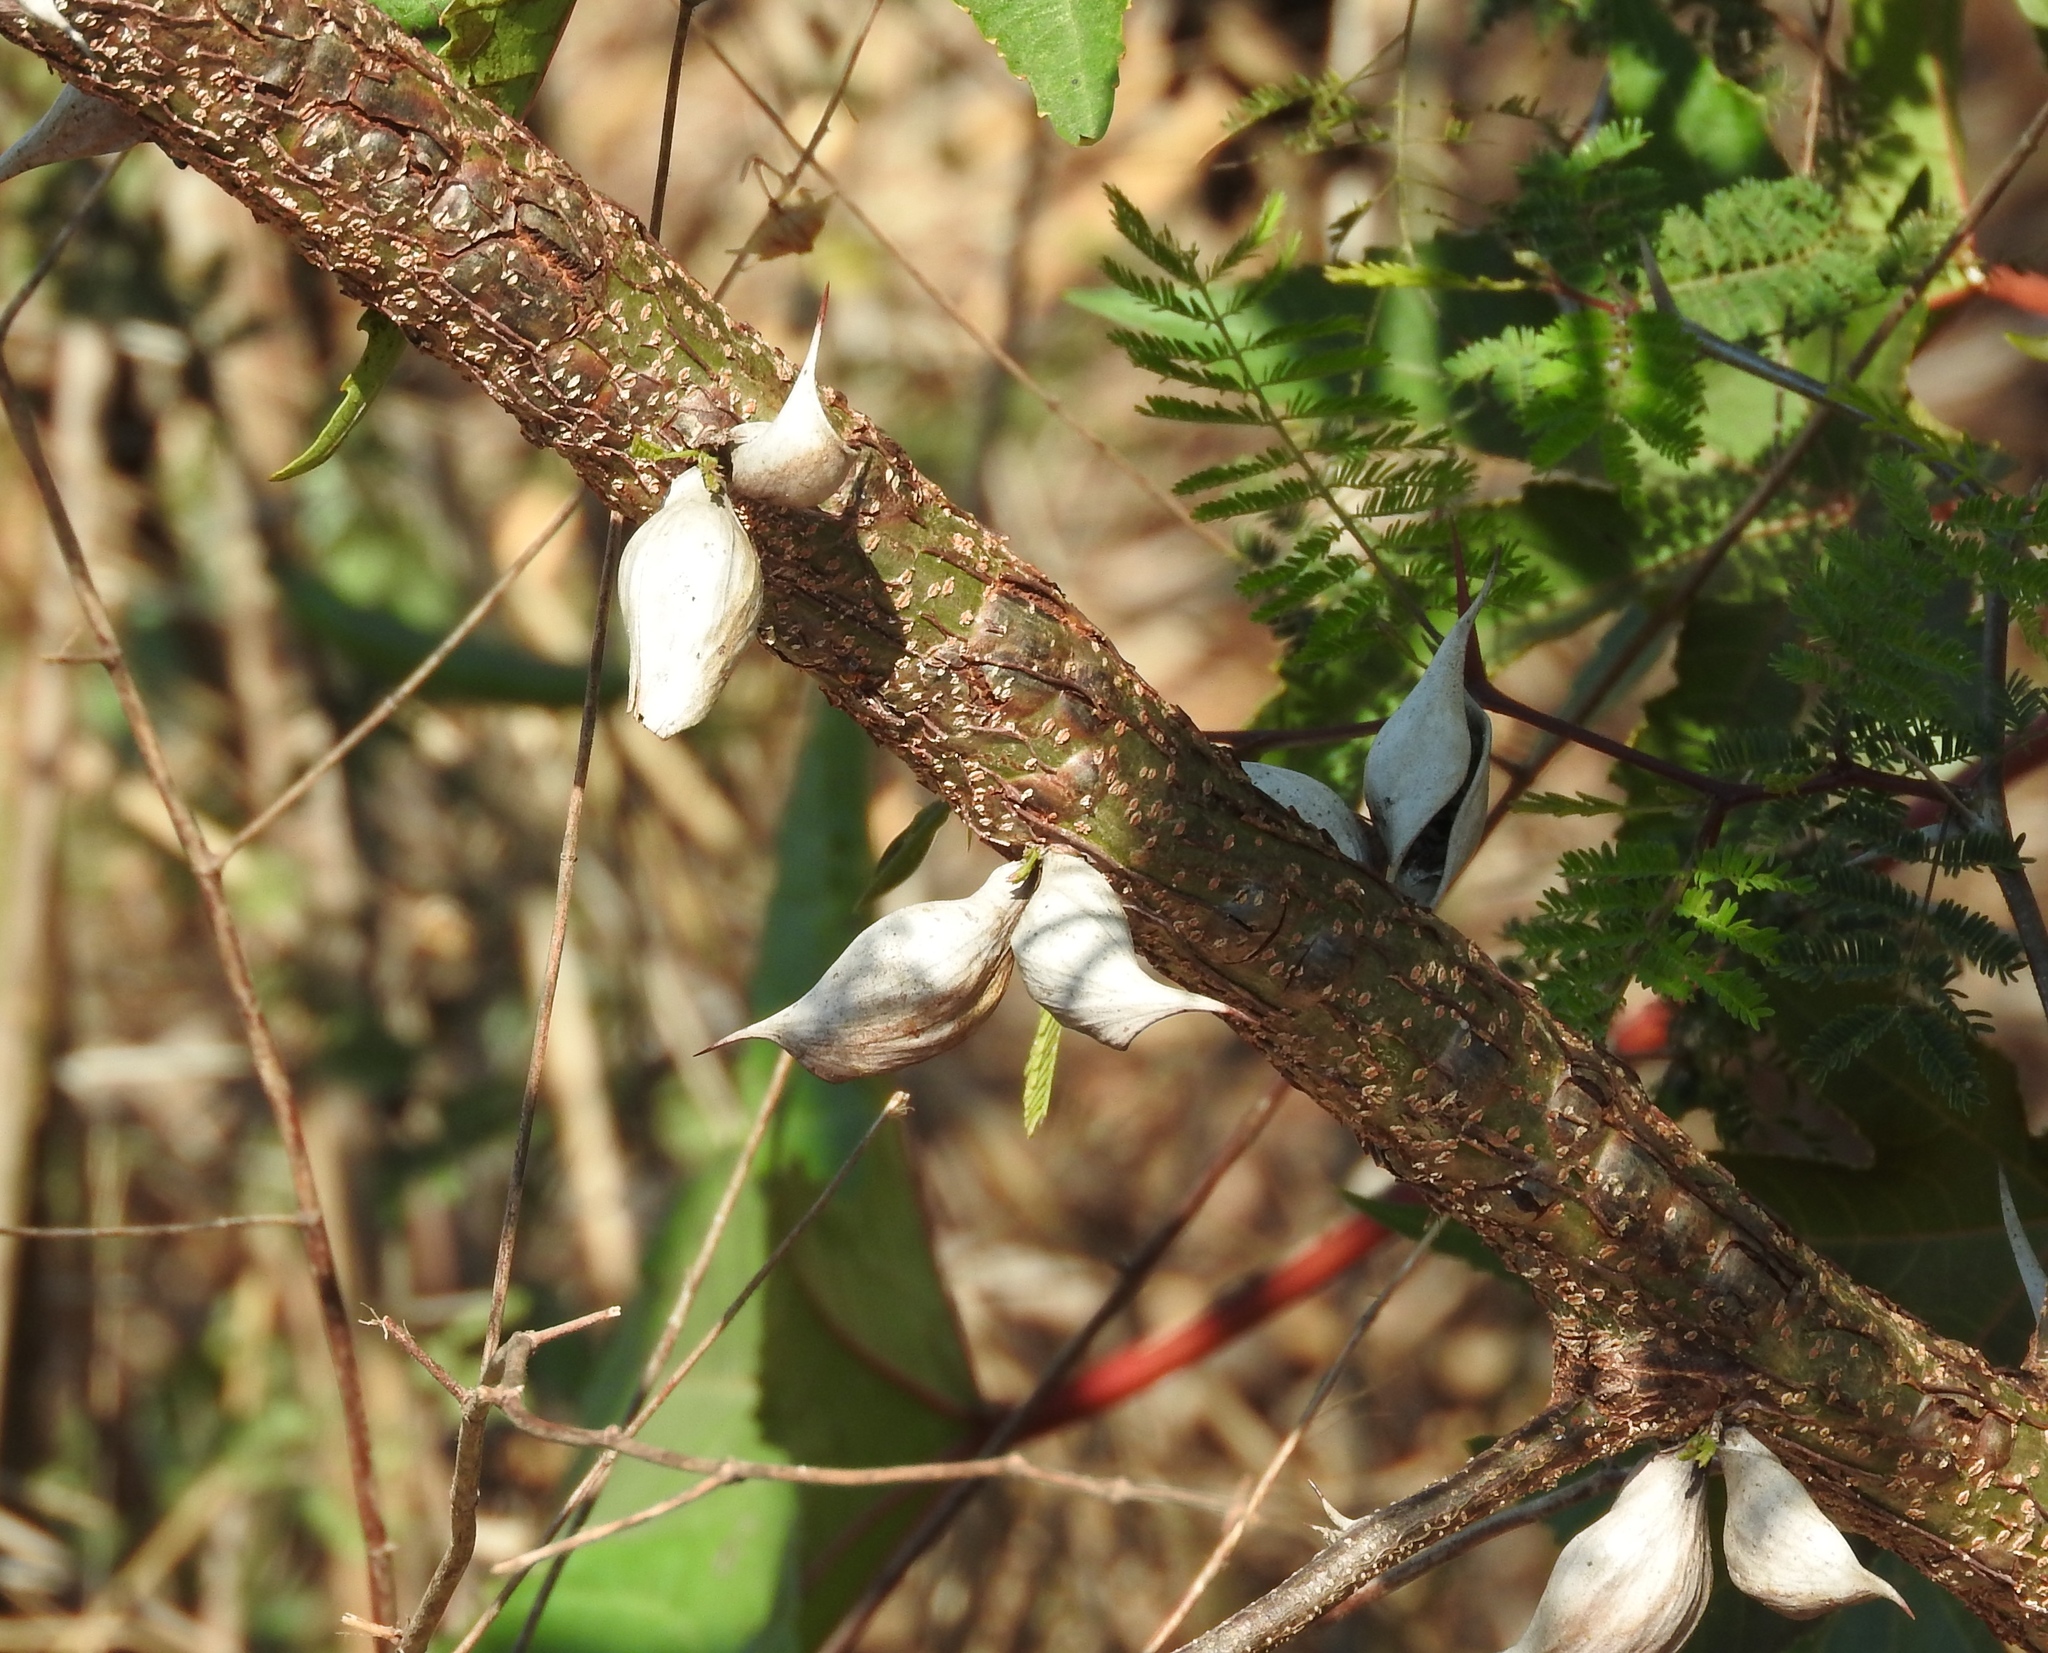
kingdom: Plantae
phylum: Tracheophyta
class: Magnoliopsida
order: Fabales
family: Fabaceae
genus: Acacia
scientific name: Acacia
